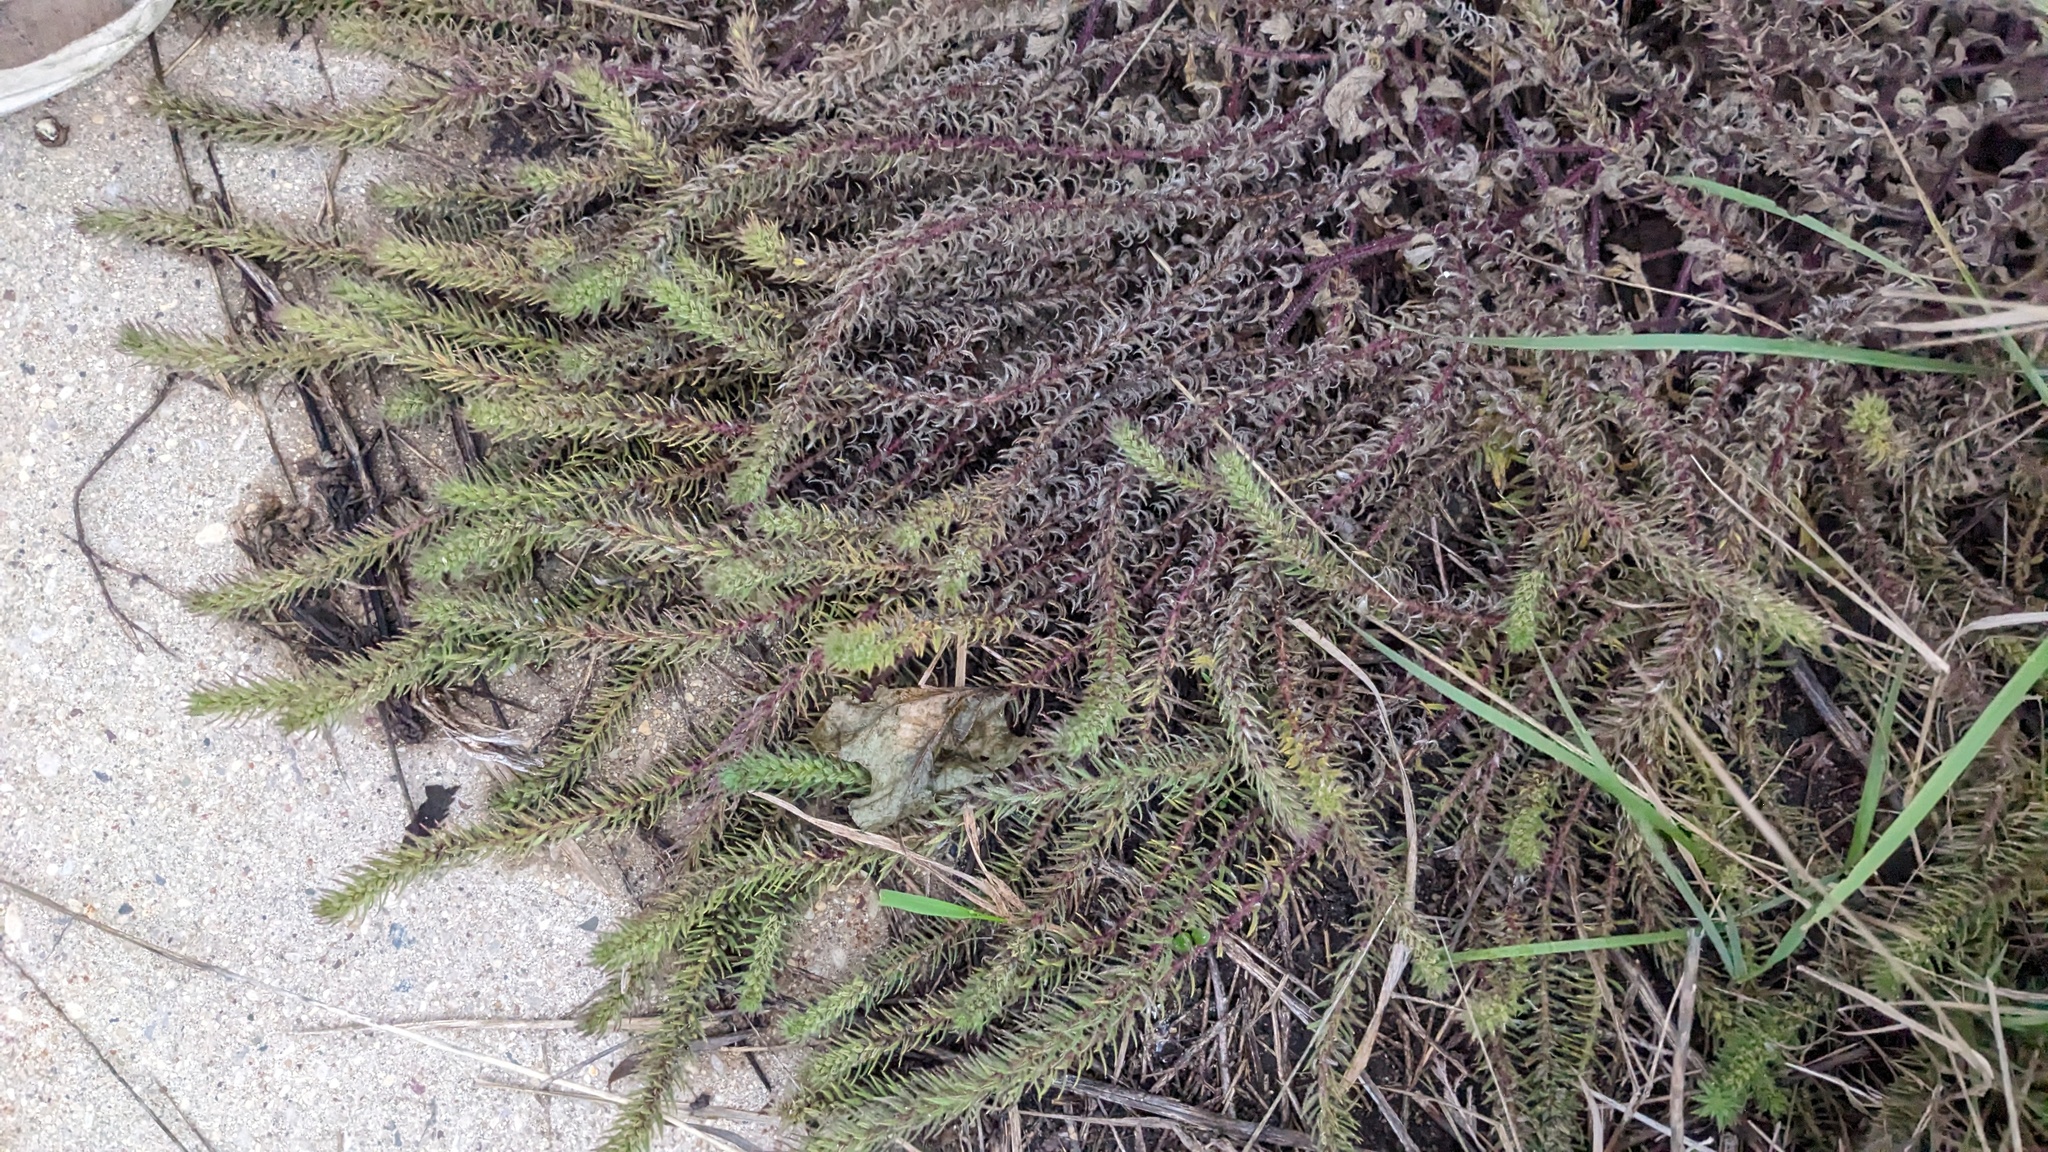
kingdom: Plantae
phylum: Tracheophyta
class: Magnoliopsida
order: Lamiales
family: Verbenaceae
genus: Verbena
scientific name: Verbena bracteata
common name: Bracted vervain
